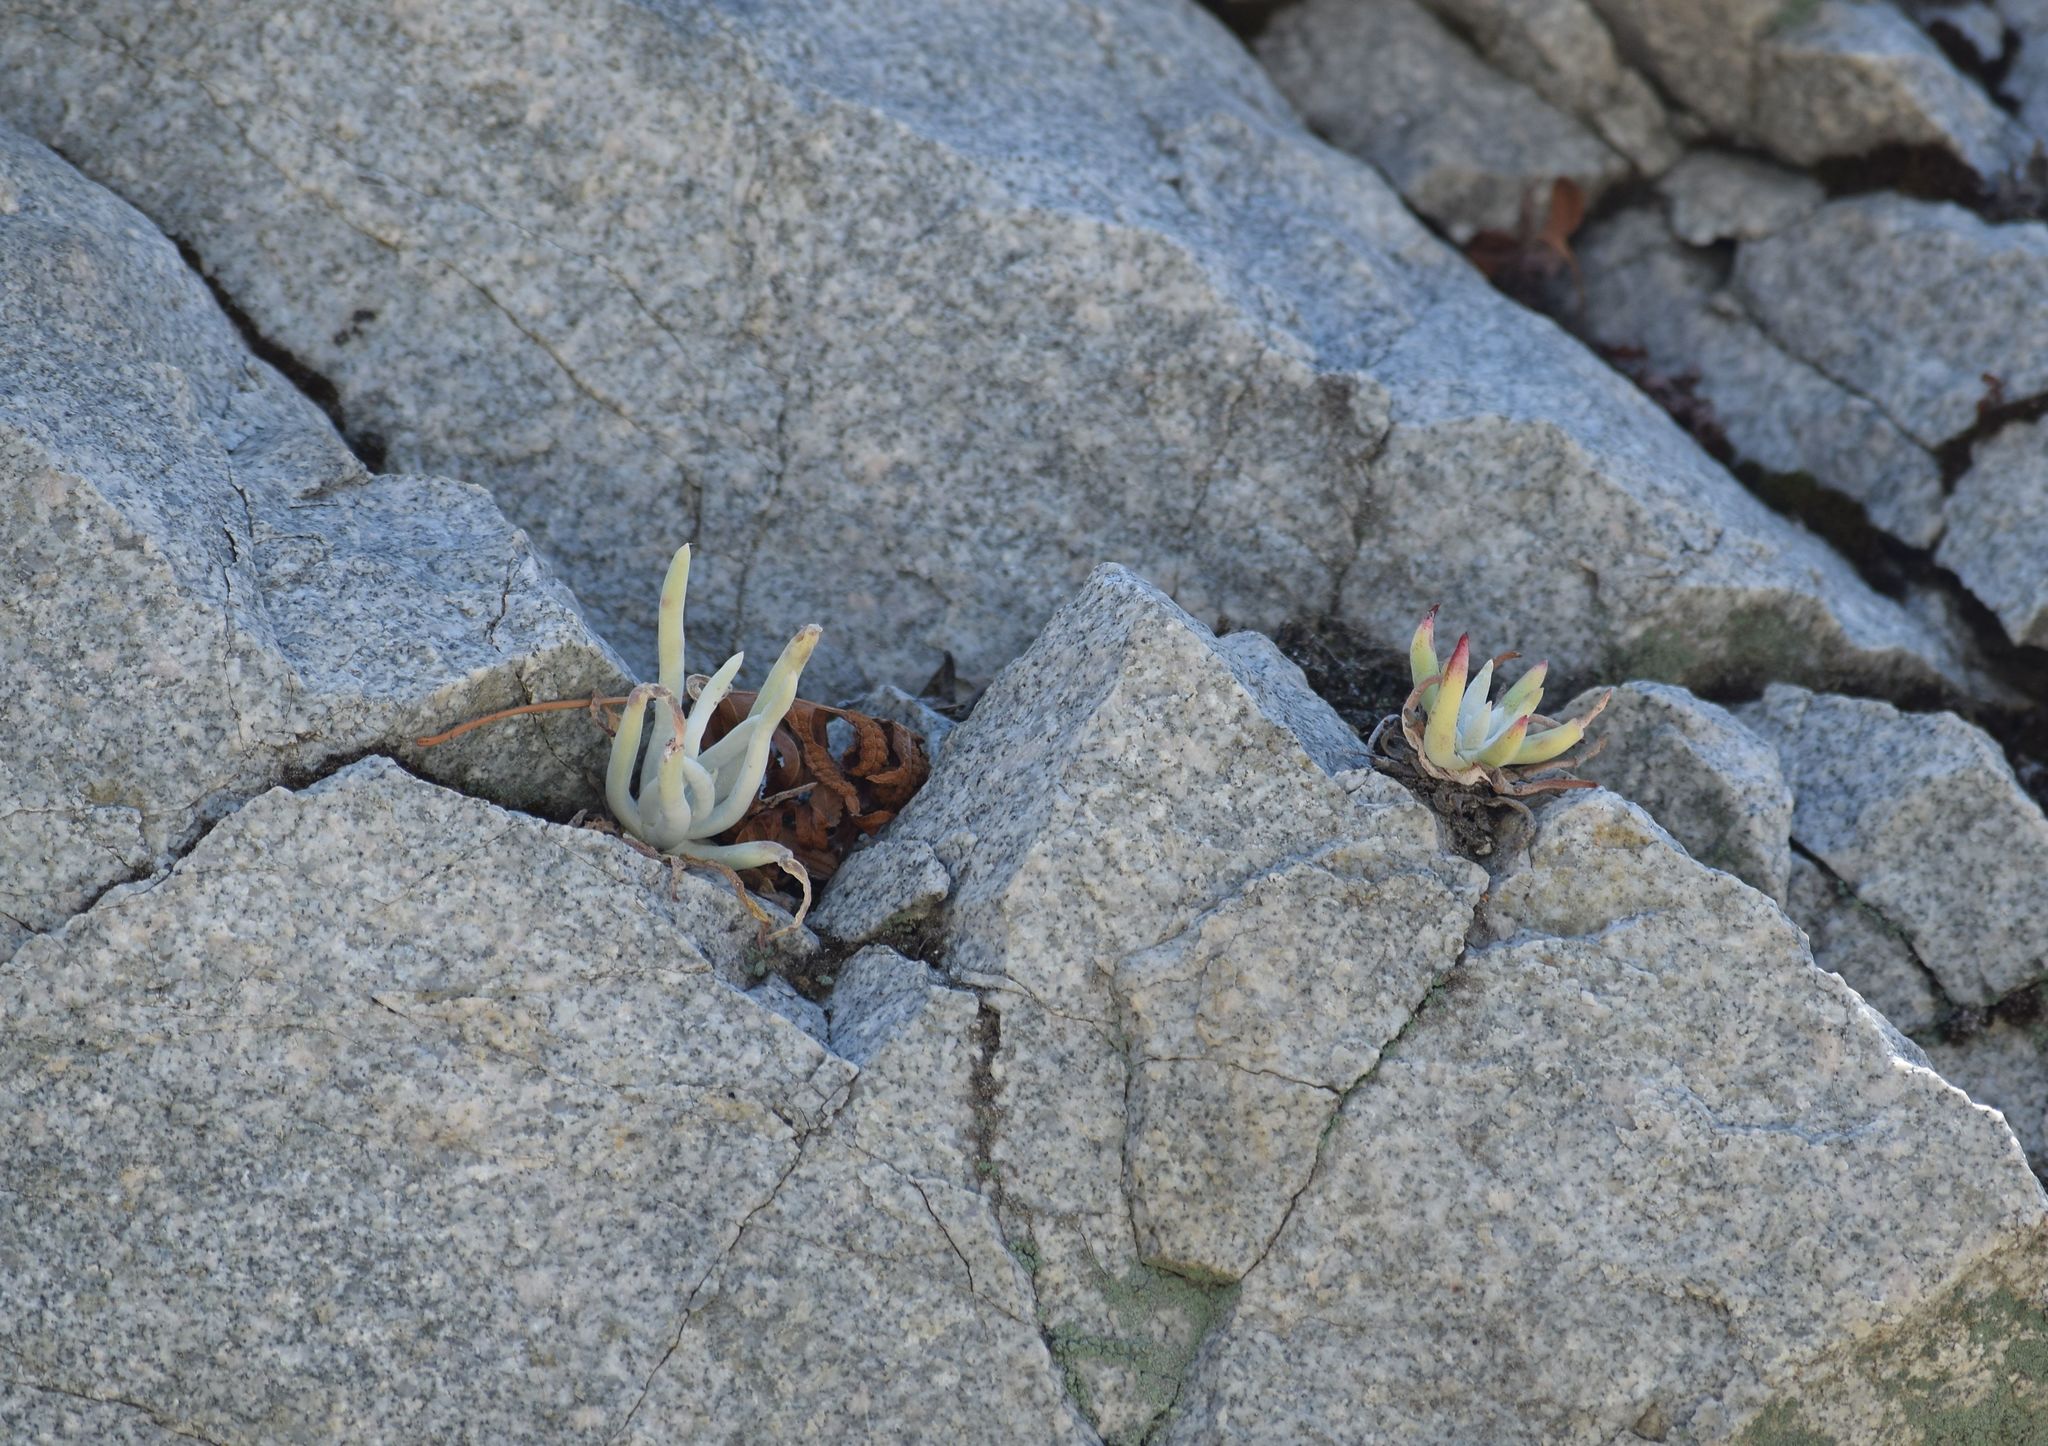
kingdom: Plantae
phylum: Tracheophyta
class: Magnoliopsida
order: Saxifragales
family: Crassulaceae
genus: Dudleya
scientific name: Dudleya densiflora
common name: San gabriel mountains dudleya
